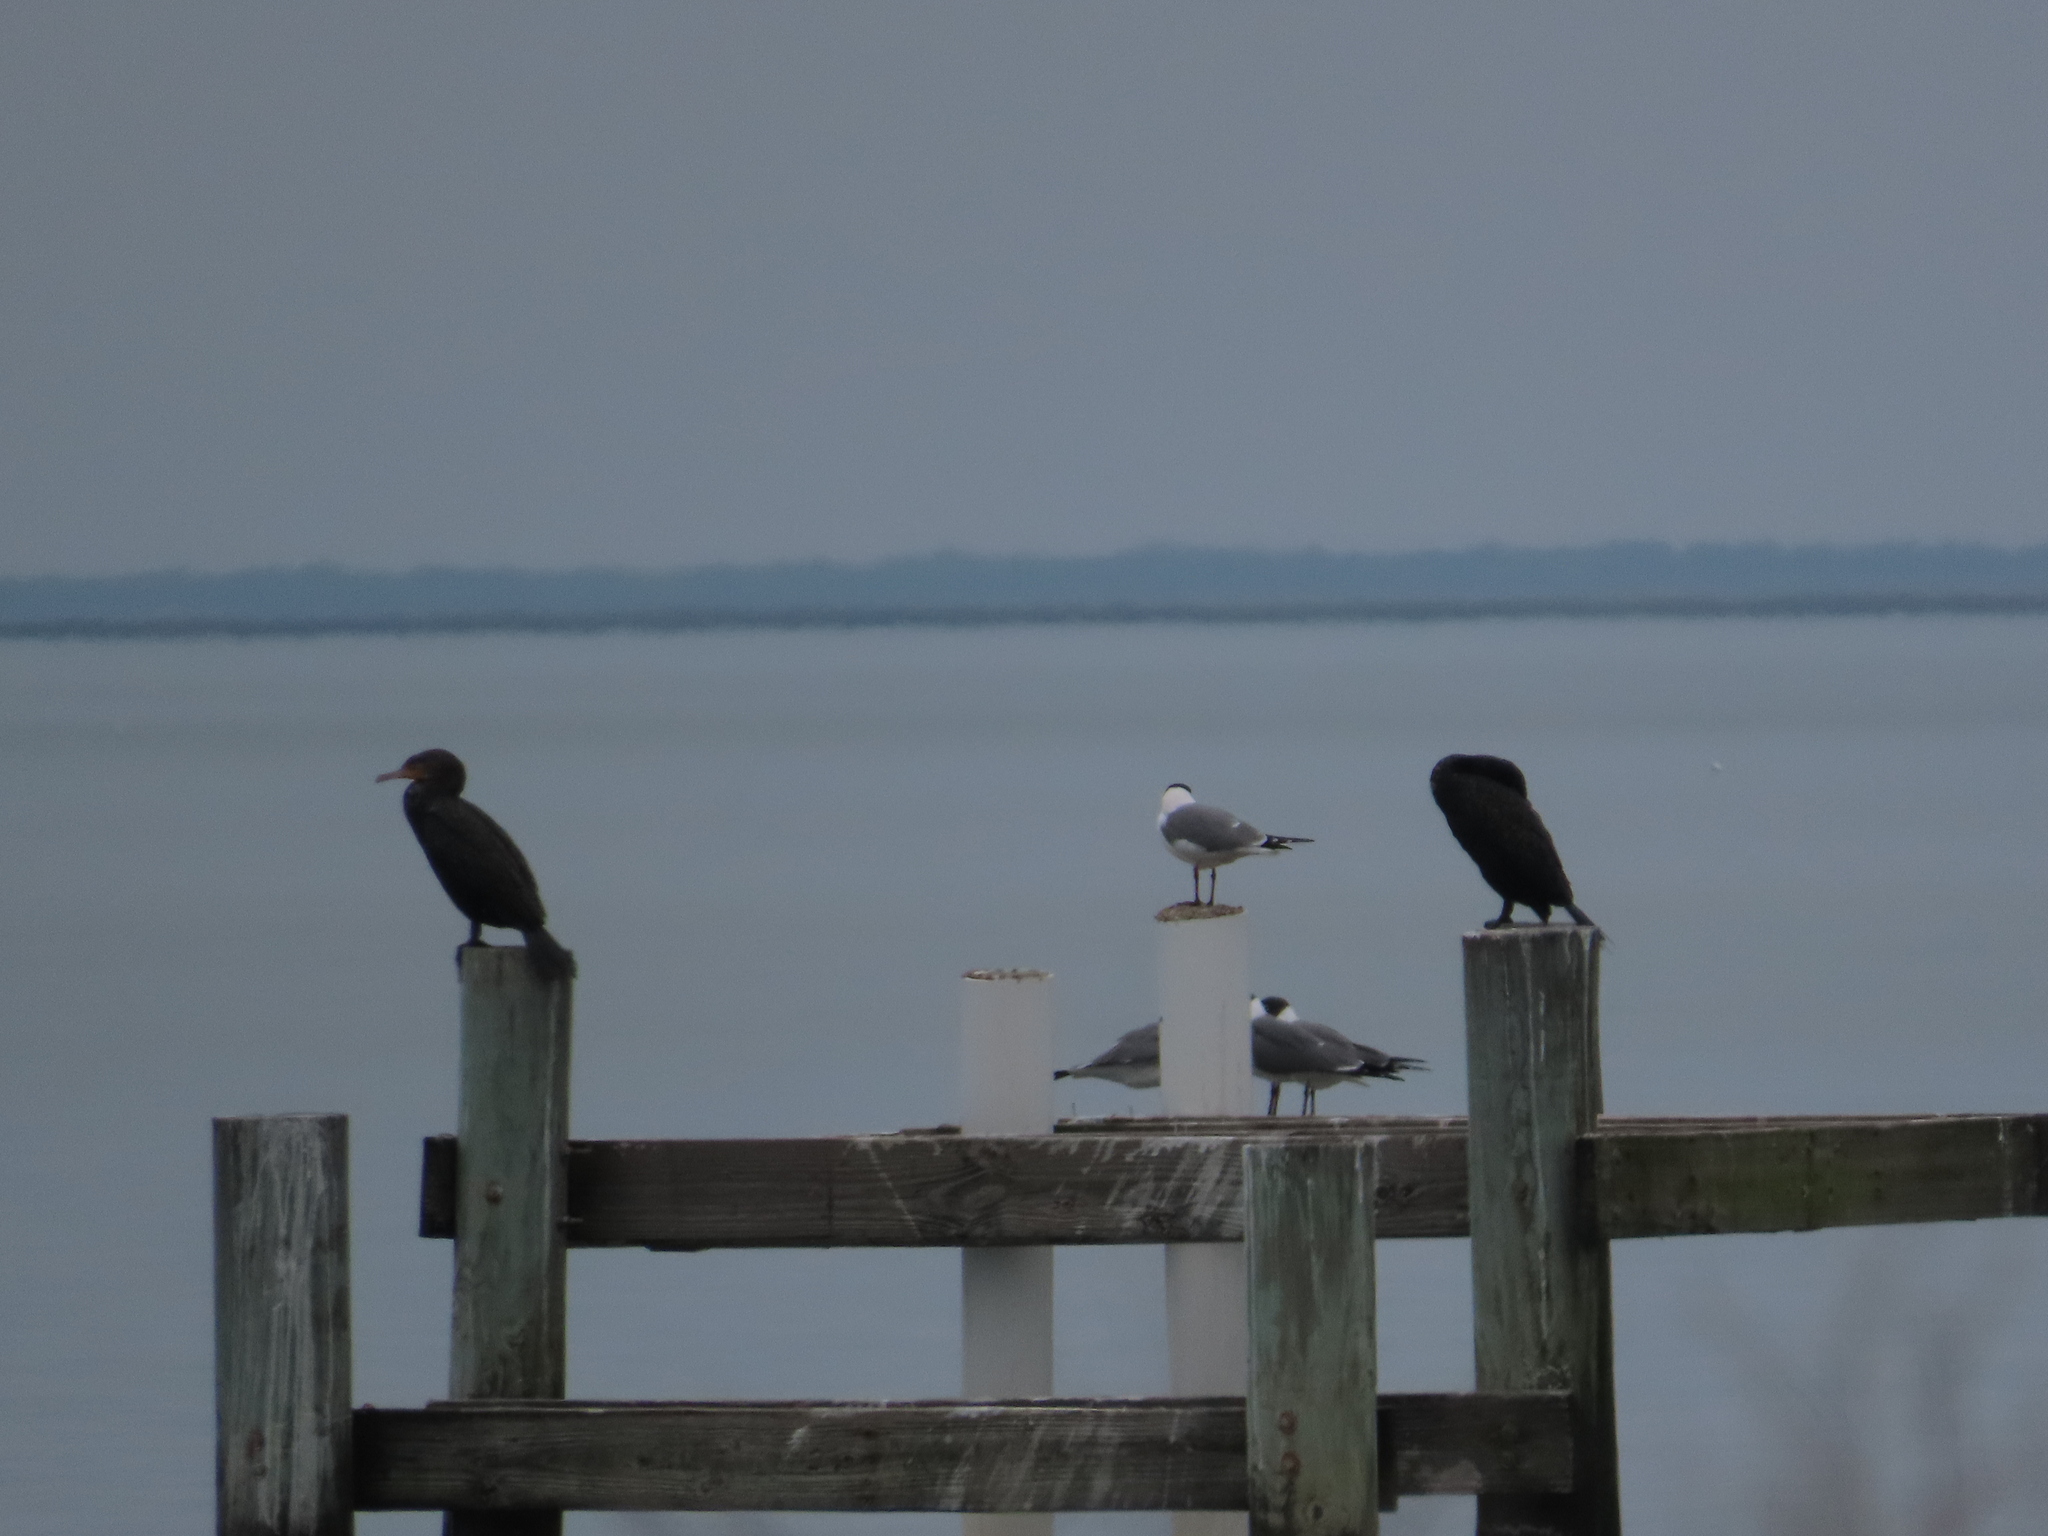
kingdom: Animalia
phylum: Chordata
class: Aves
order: Suliformes
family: Phalacrocoracidae
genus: Phalacrocorax
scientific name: Phalacrocorax auritus
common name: Double-crested cormorant
